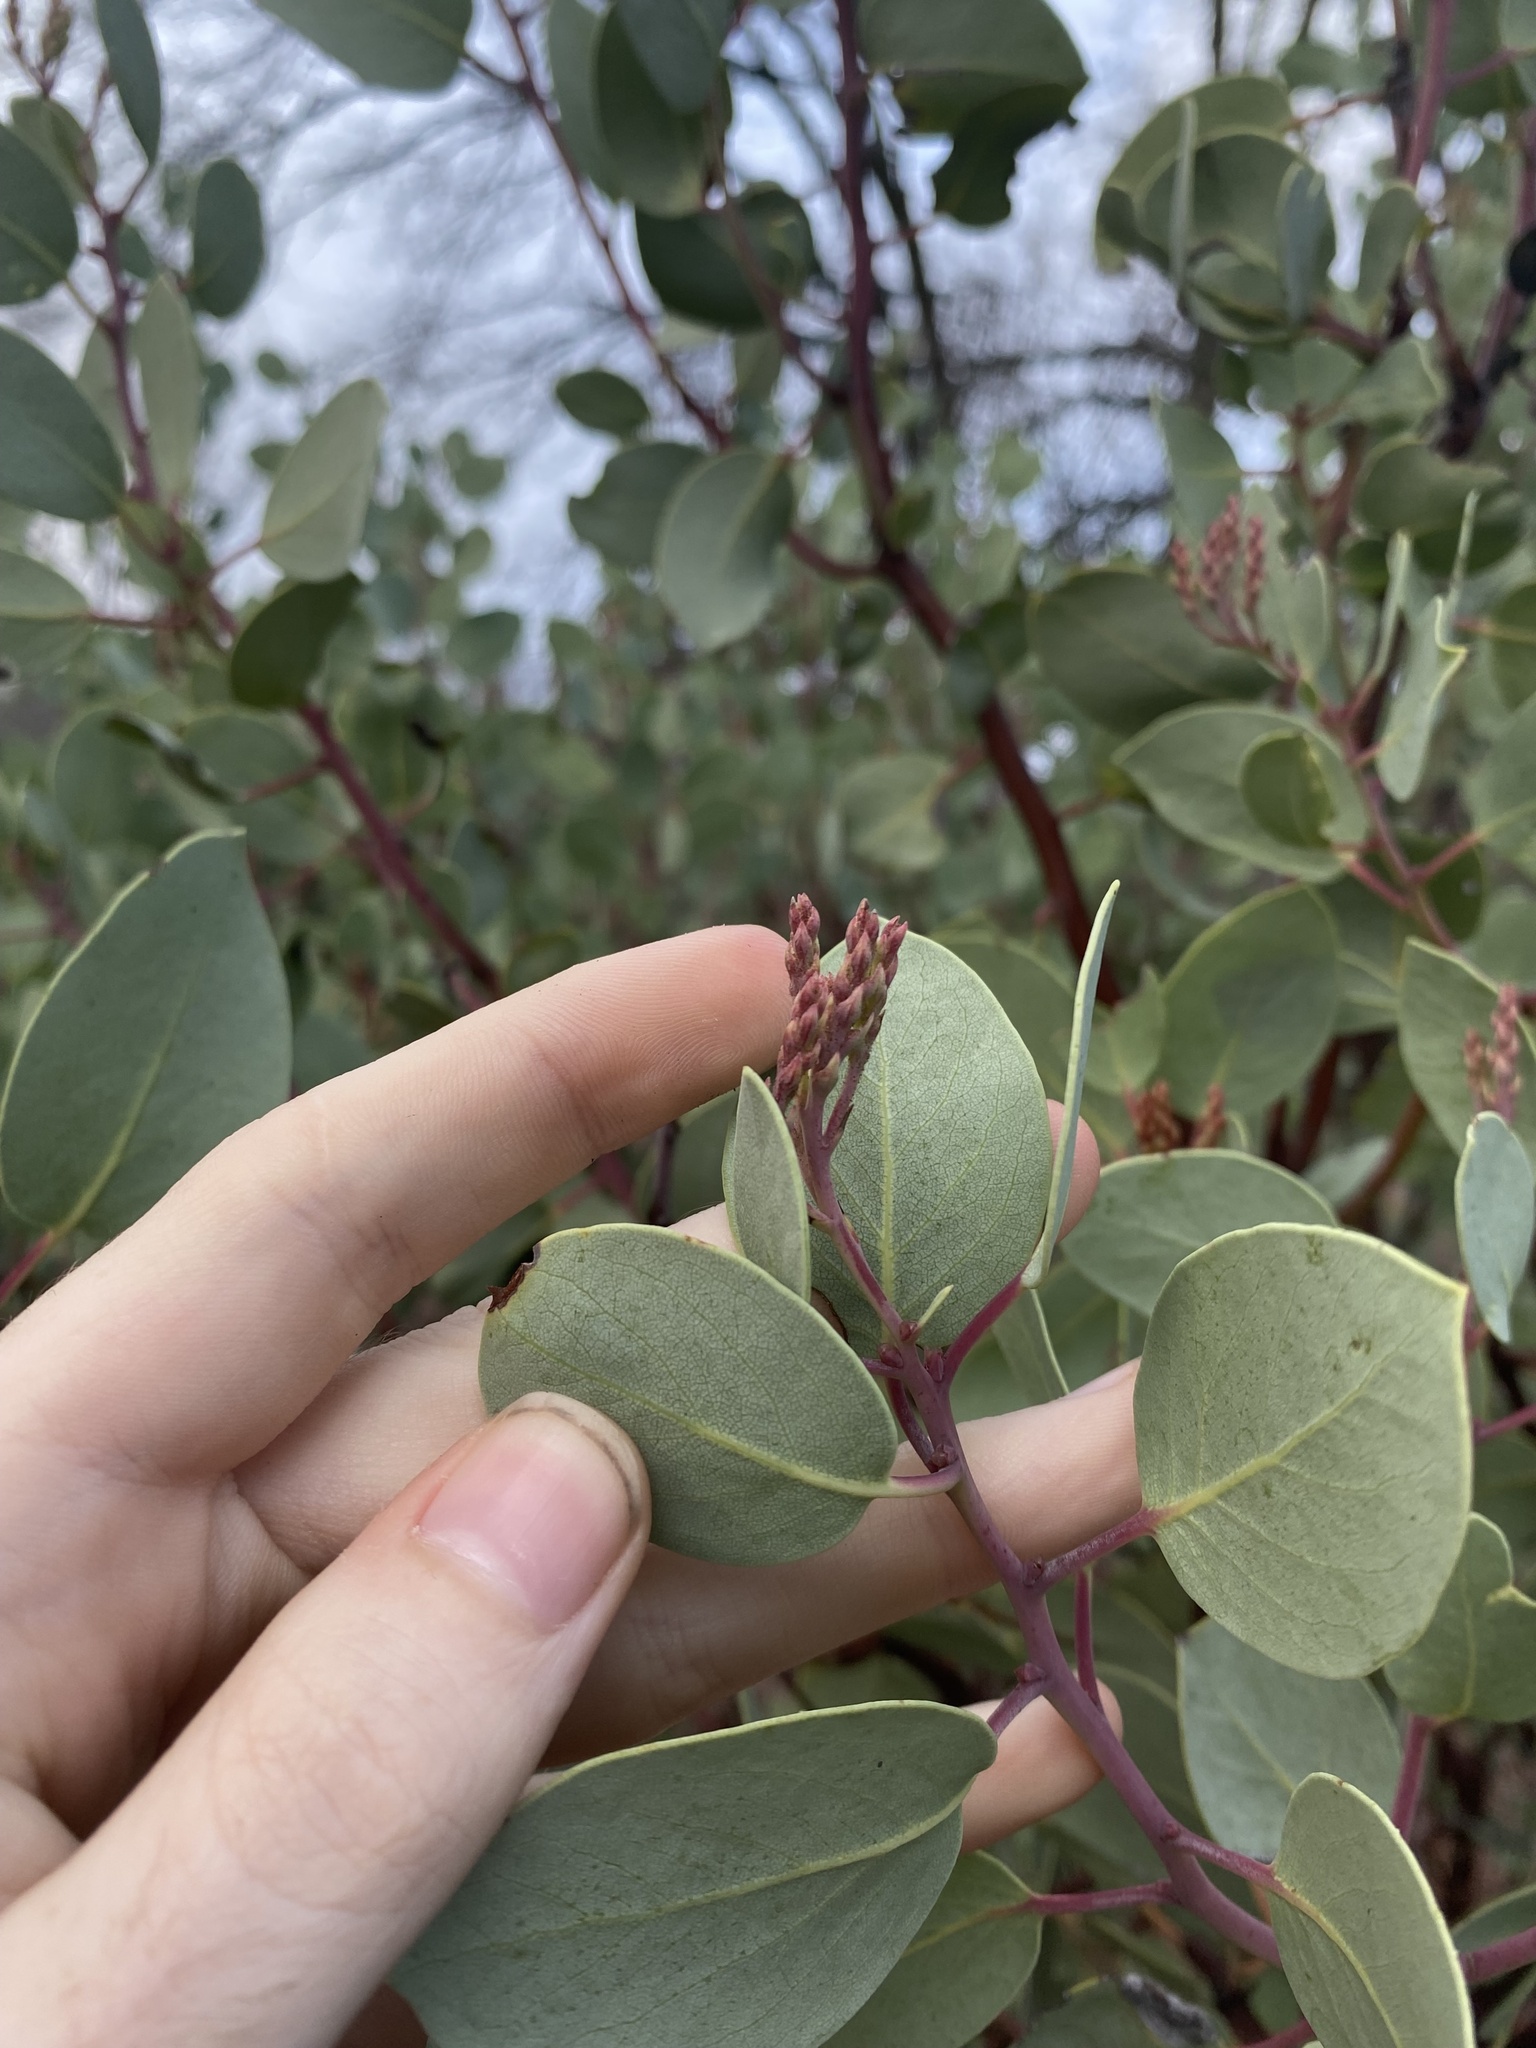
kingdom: Plantae
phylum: Tracheophyta
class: Magnoliopsida
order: Ericales
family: Ericaceae
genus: Arctostaphylos
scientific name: Arctostaphylos viscida
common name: White-leaf manzanita
